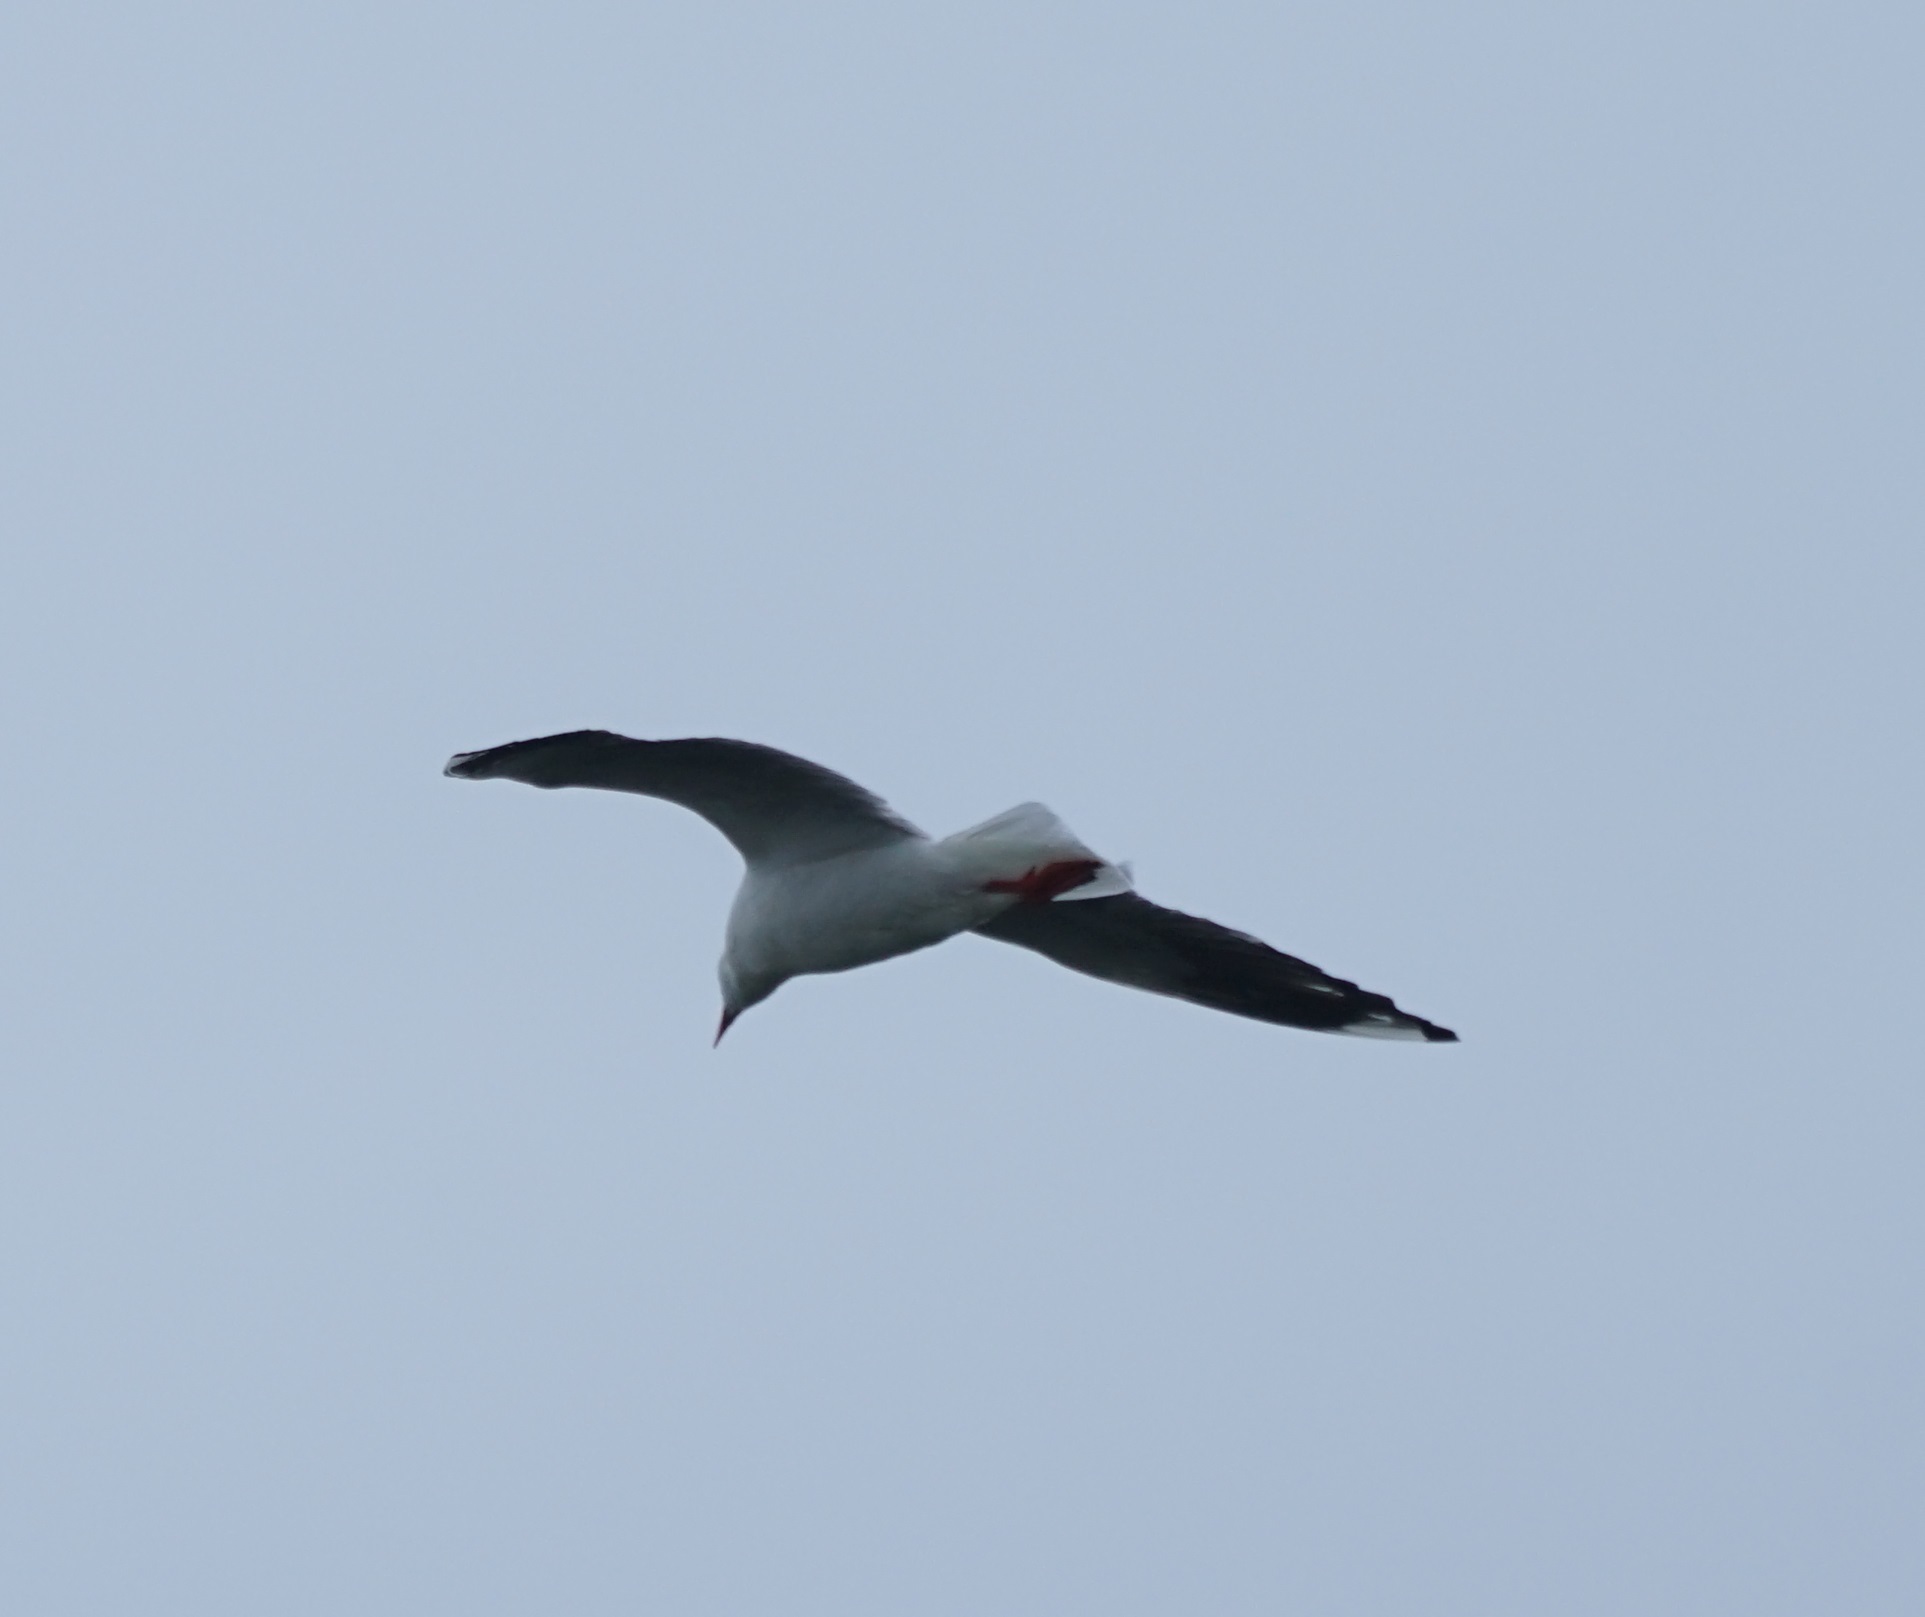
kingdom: Animalia
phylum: Chordata
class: Aves
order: Charadriiformes
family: Laridae
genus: Chroicocephalus
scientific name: Chroicocephalus novaehollandiae
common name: Silver gull
